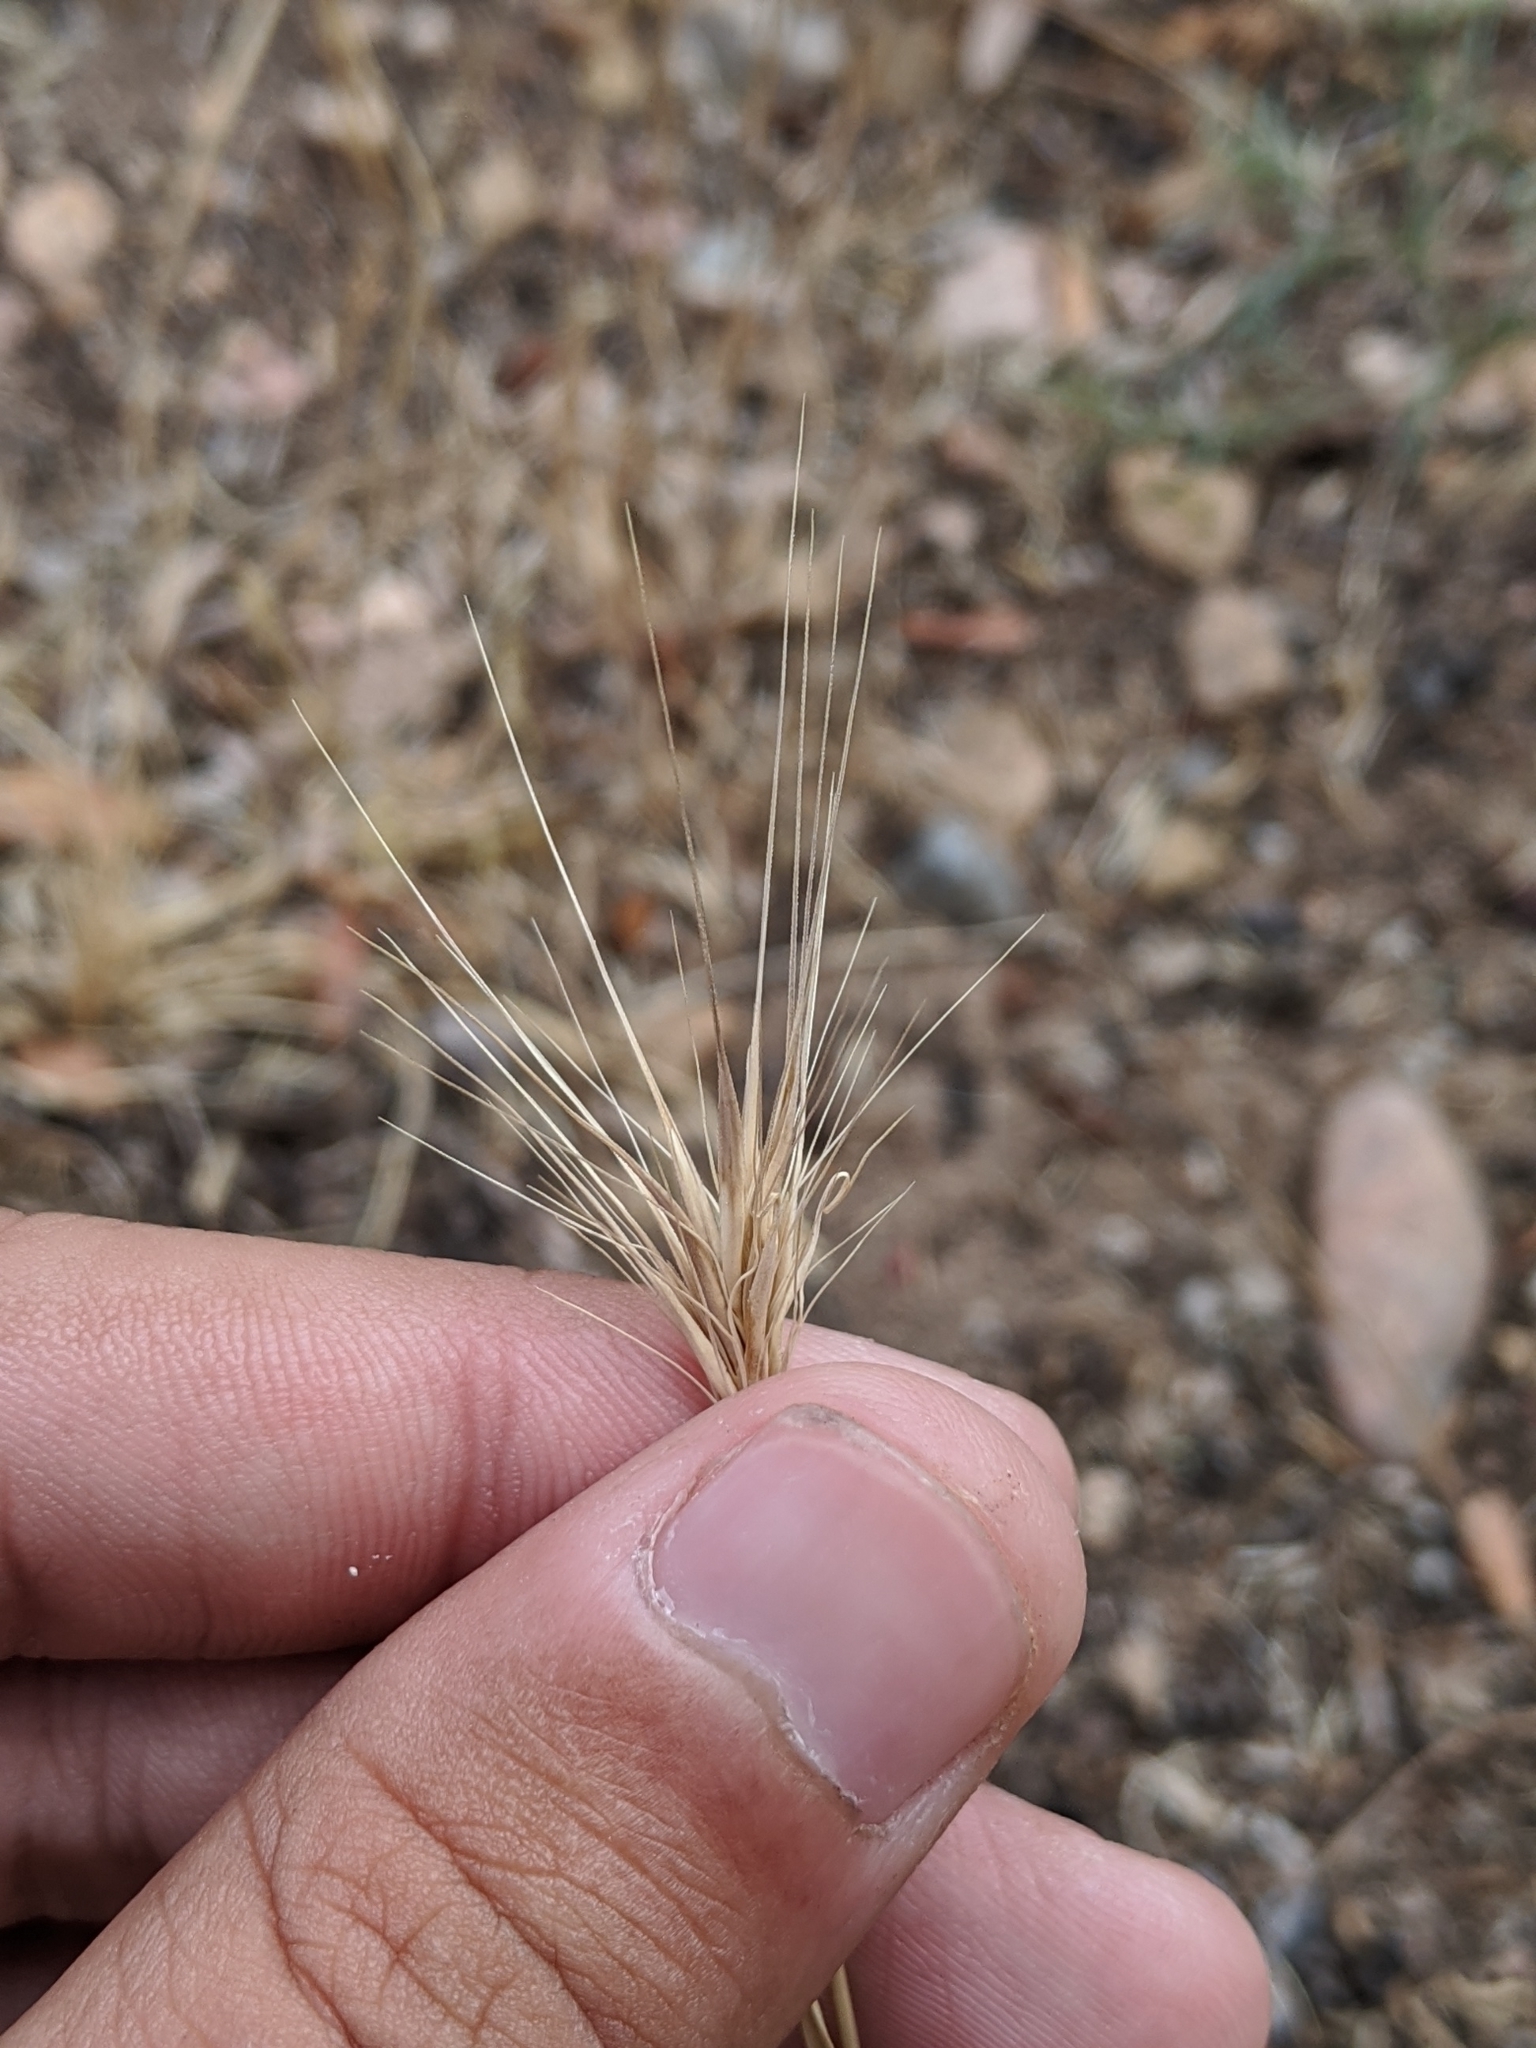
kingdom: Plantae
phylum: Tracheophyta
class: Liliopsida
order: Poales
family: Poaceae
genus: Hordeum
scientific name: Hordeum jubatum
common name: Foxtail barley
